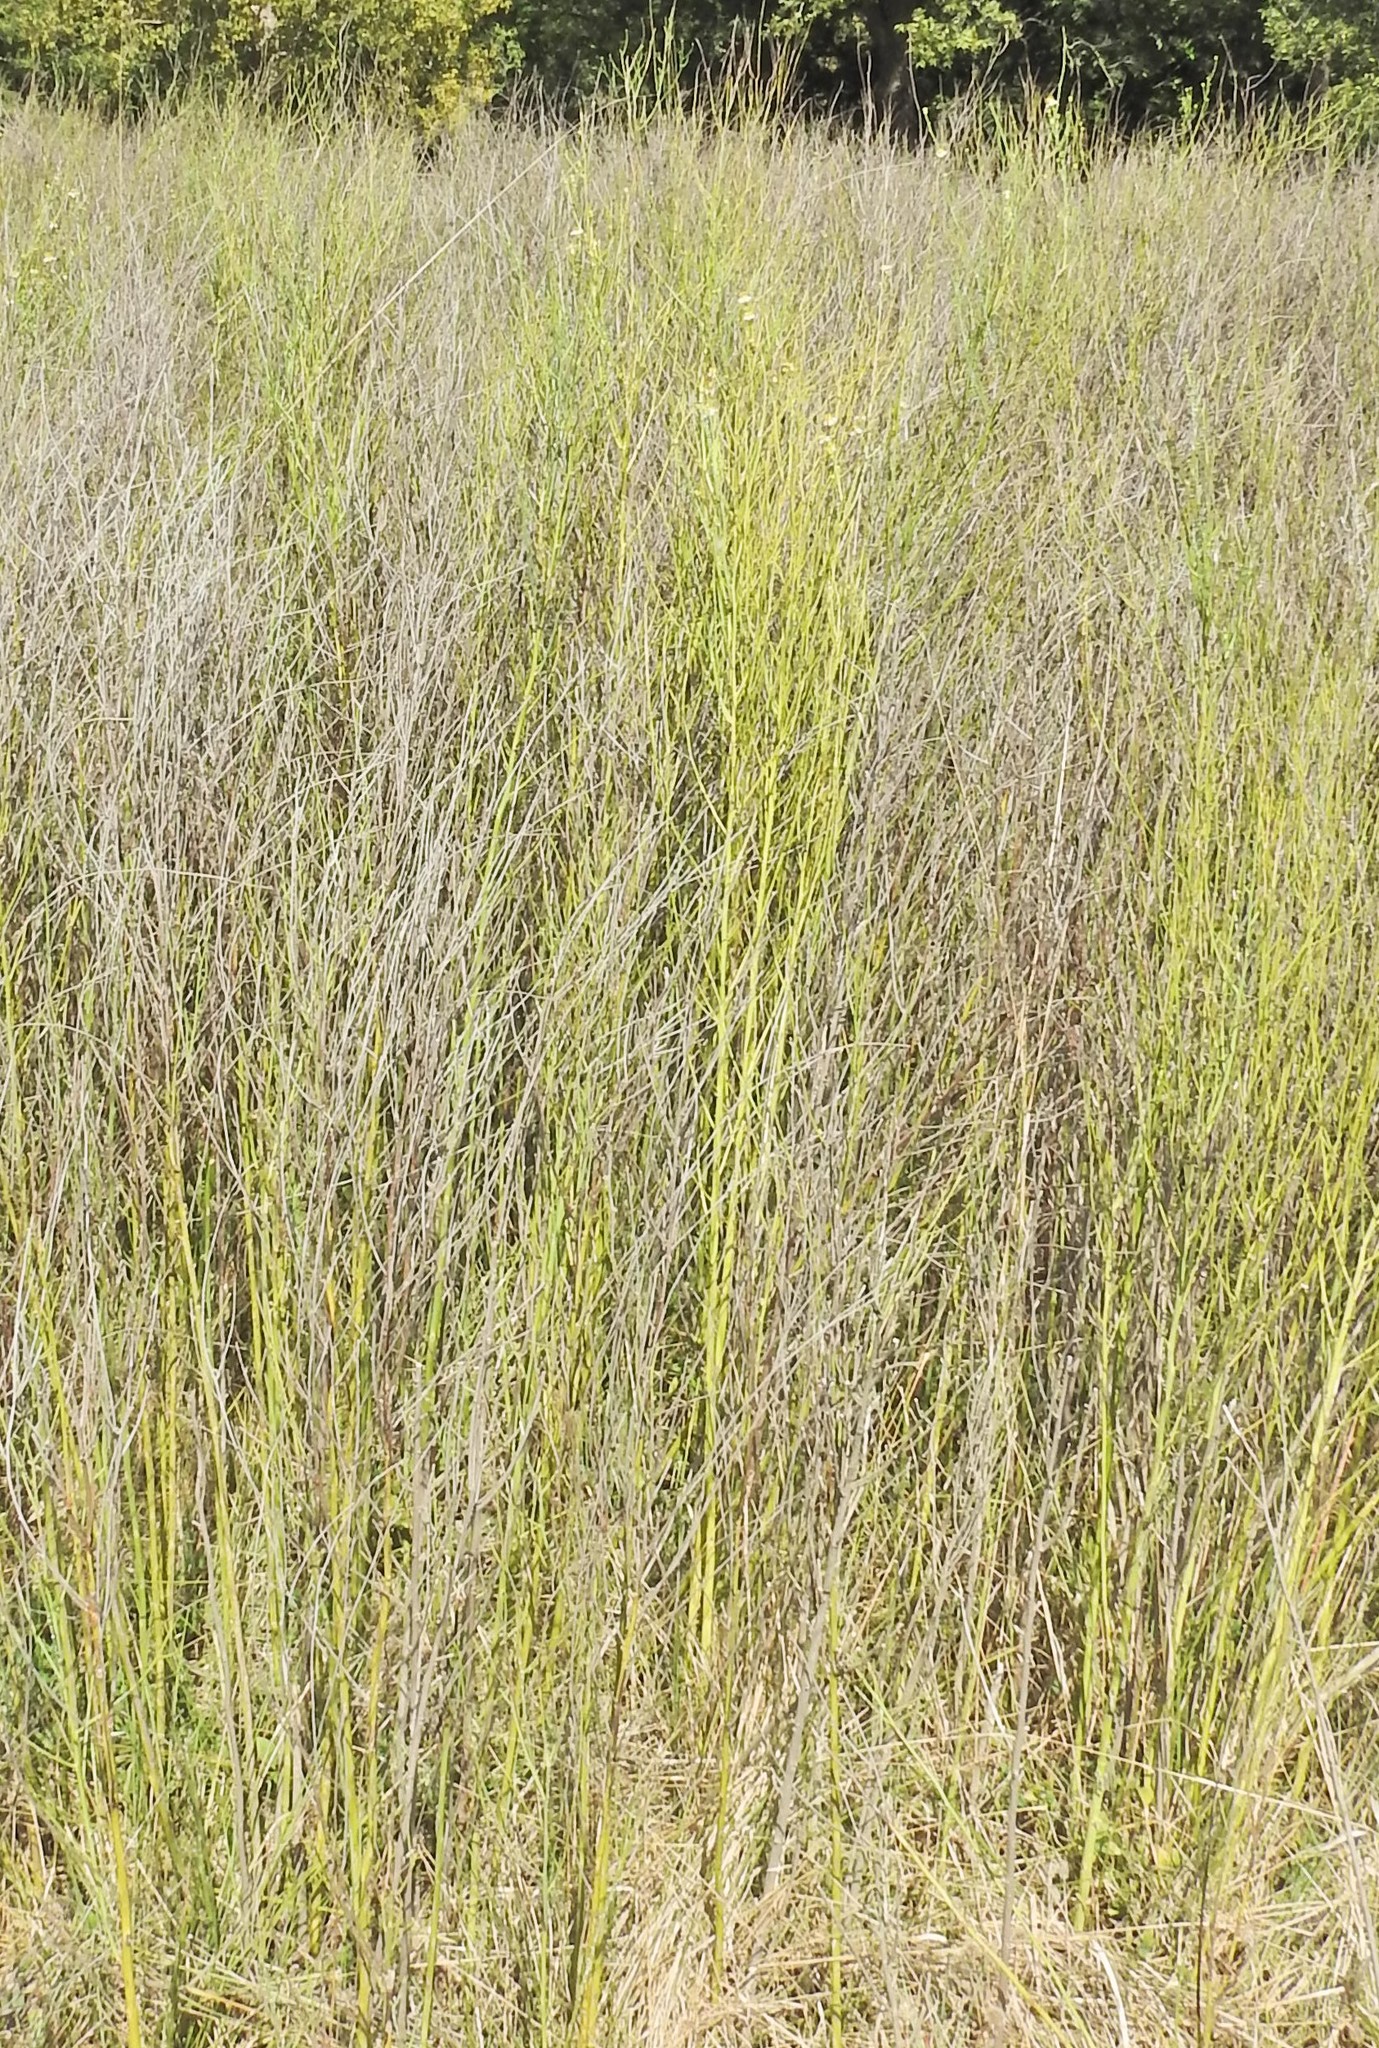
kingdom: Plantae
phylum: Tracheophyta
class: Magnoliopsida
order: Asterales
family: Asteraceae
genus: Chloracantha
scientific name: Chloracantha spinosa
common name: Mexican devilweed
